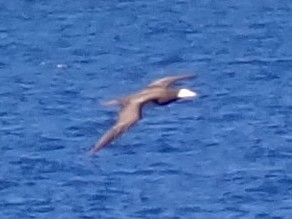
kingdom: Animalia
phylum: Chordata
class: Aves
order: Suliformes
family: Sulidae
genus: Sula
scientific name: Sula leucogaster
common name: Brown booby
